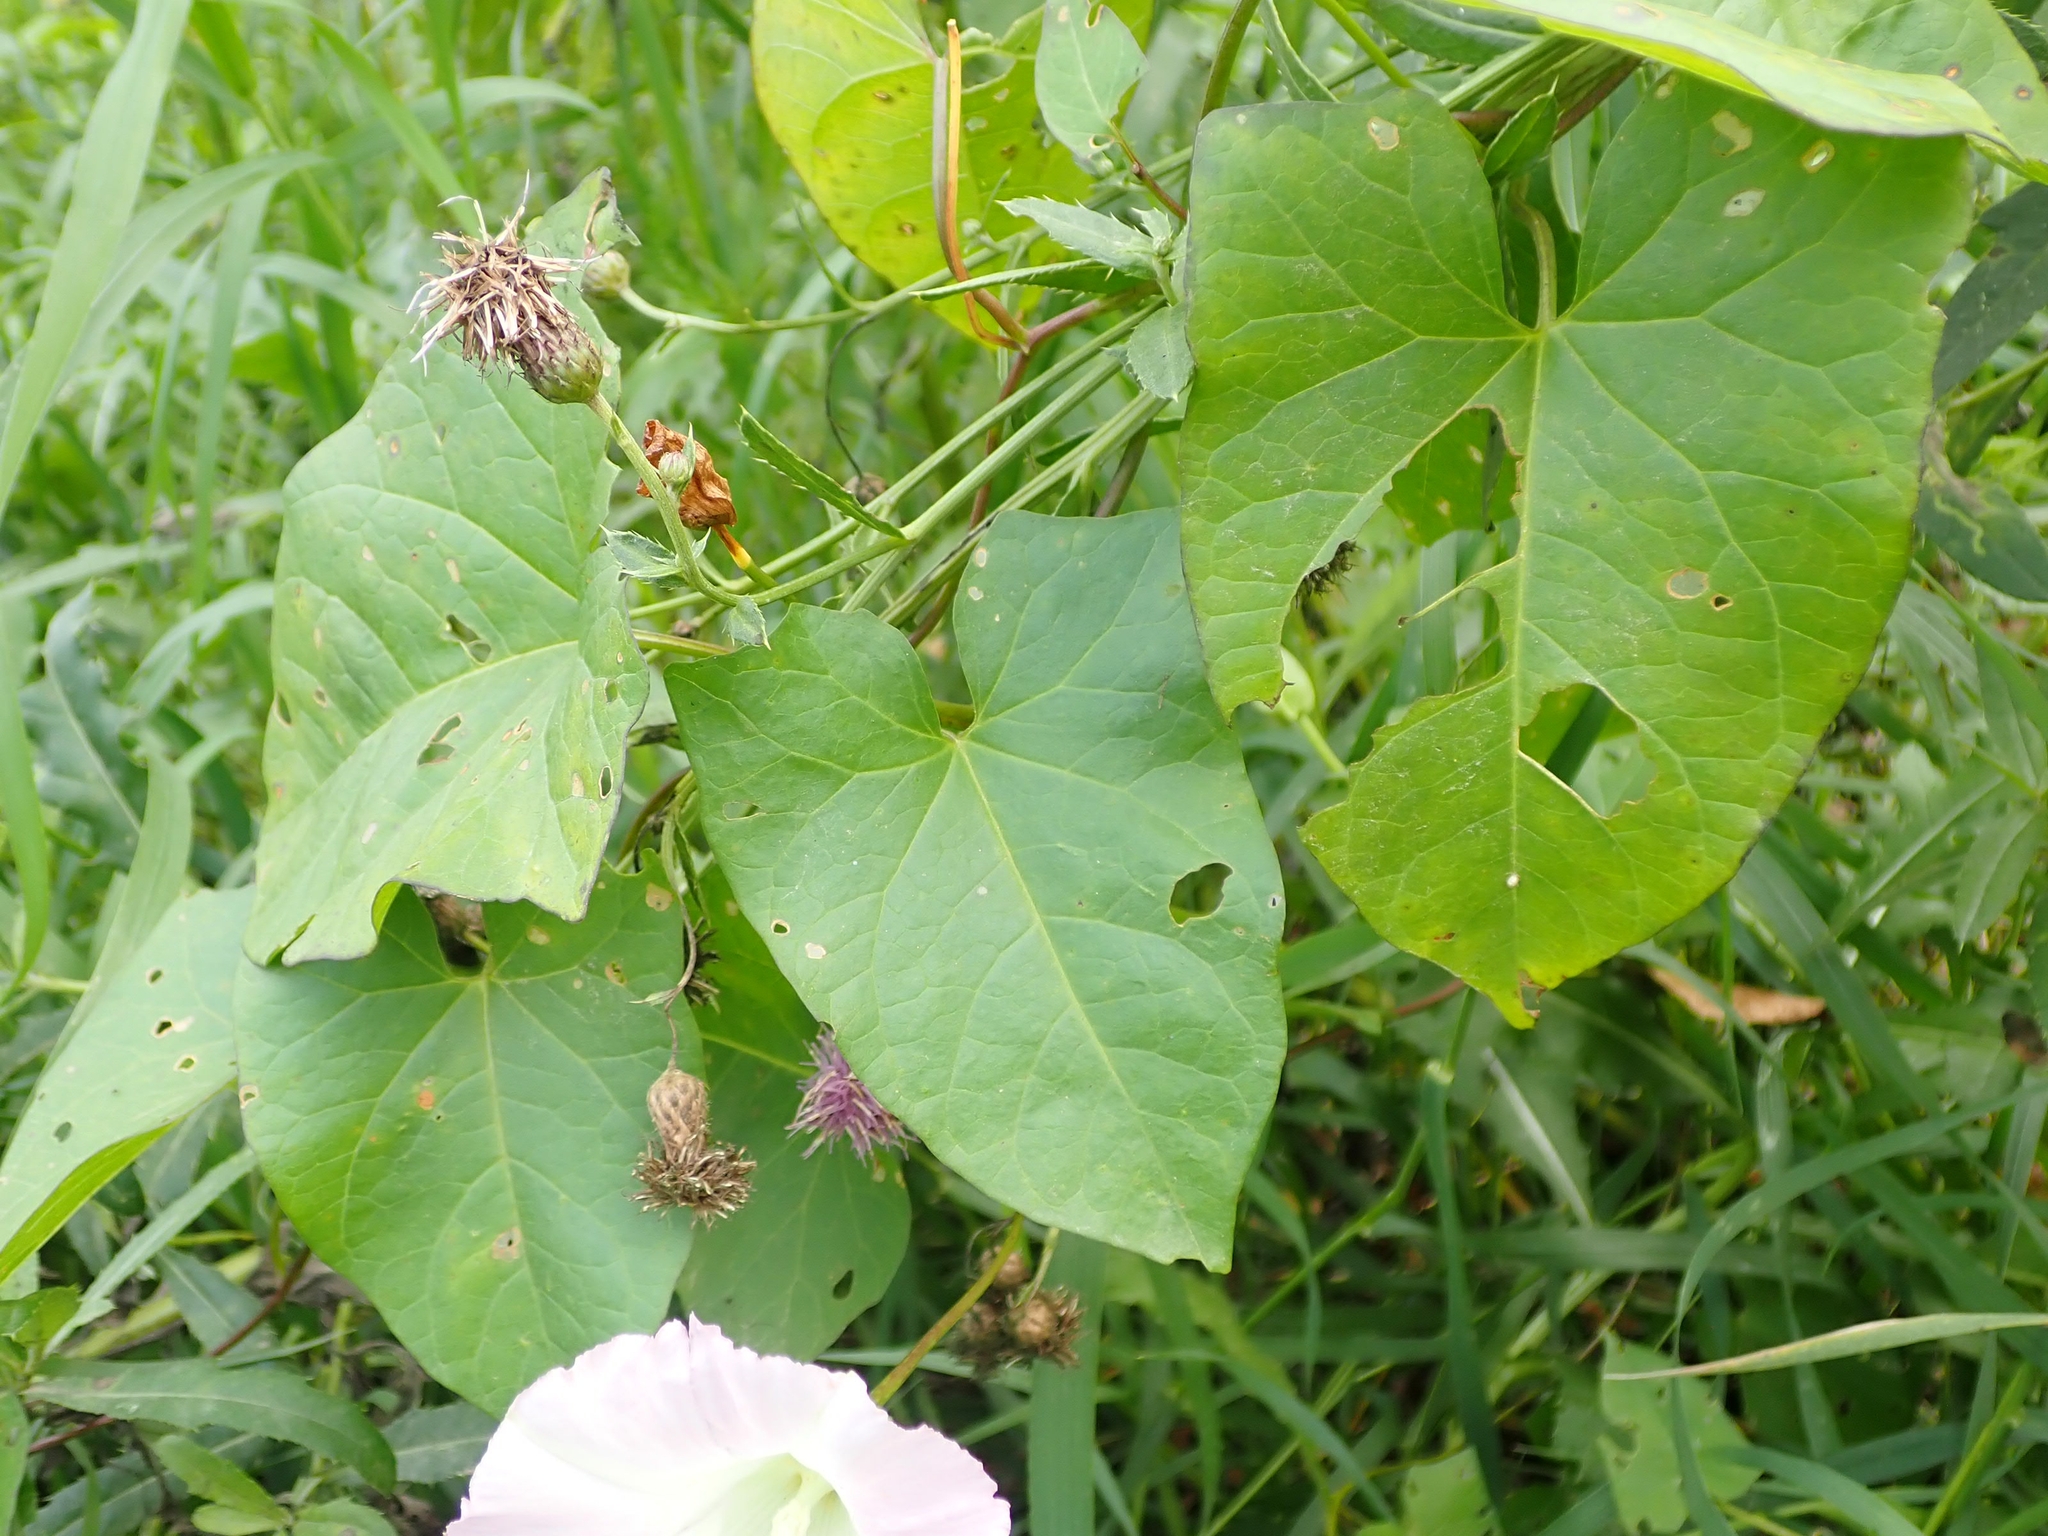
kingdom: Plantae
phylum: Tracheophyta
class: Magnoliopsida
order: Solanales
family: Convolvulaceae
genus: Calystegia
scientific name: Calystegia sepium
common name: Hedge bindweed
